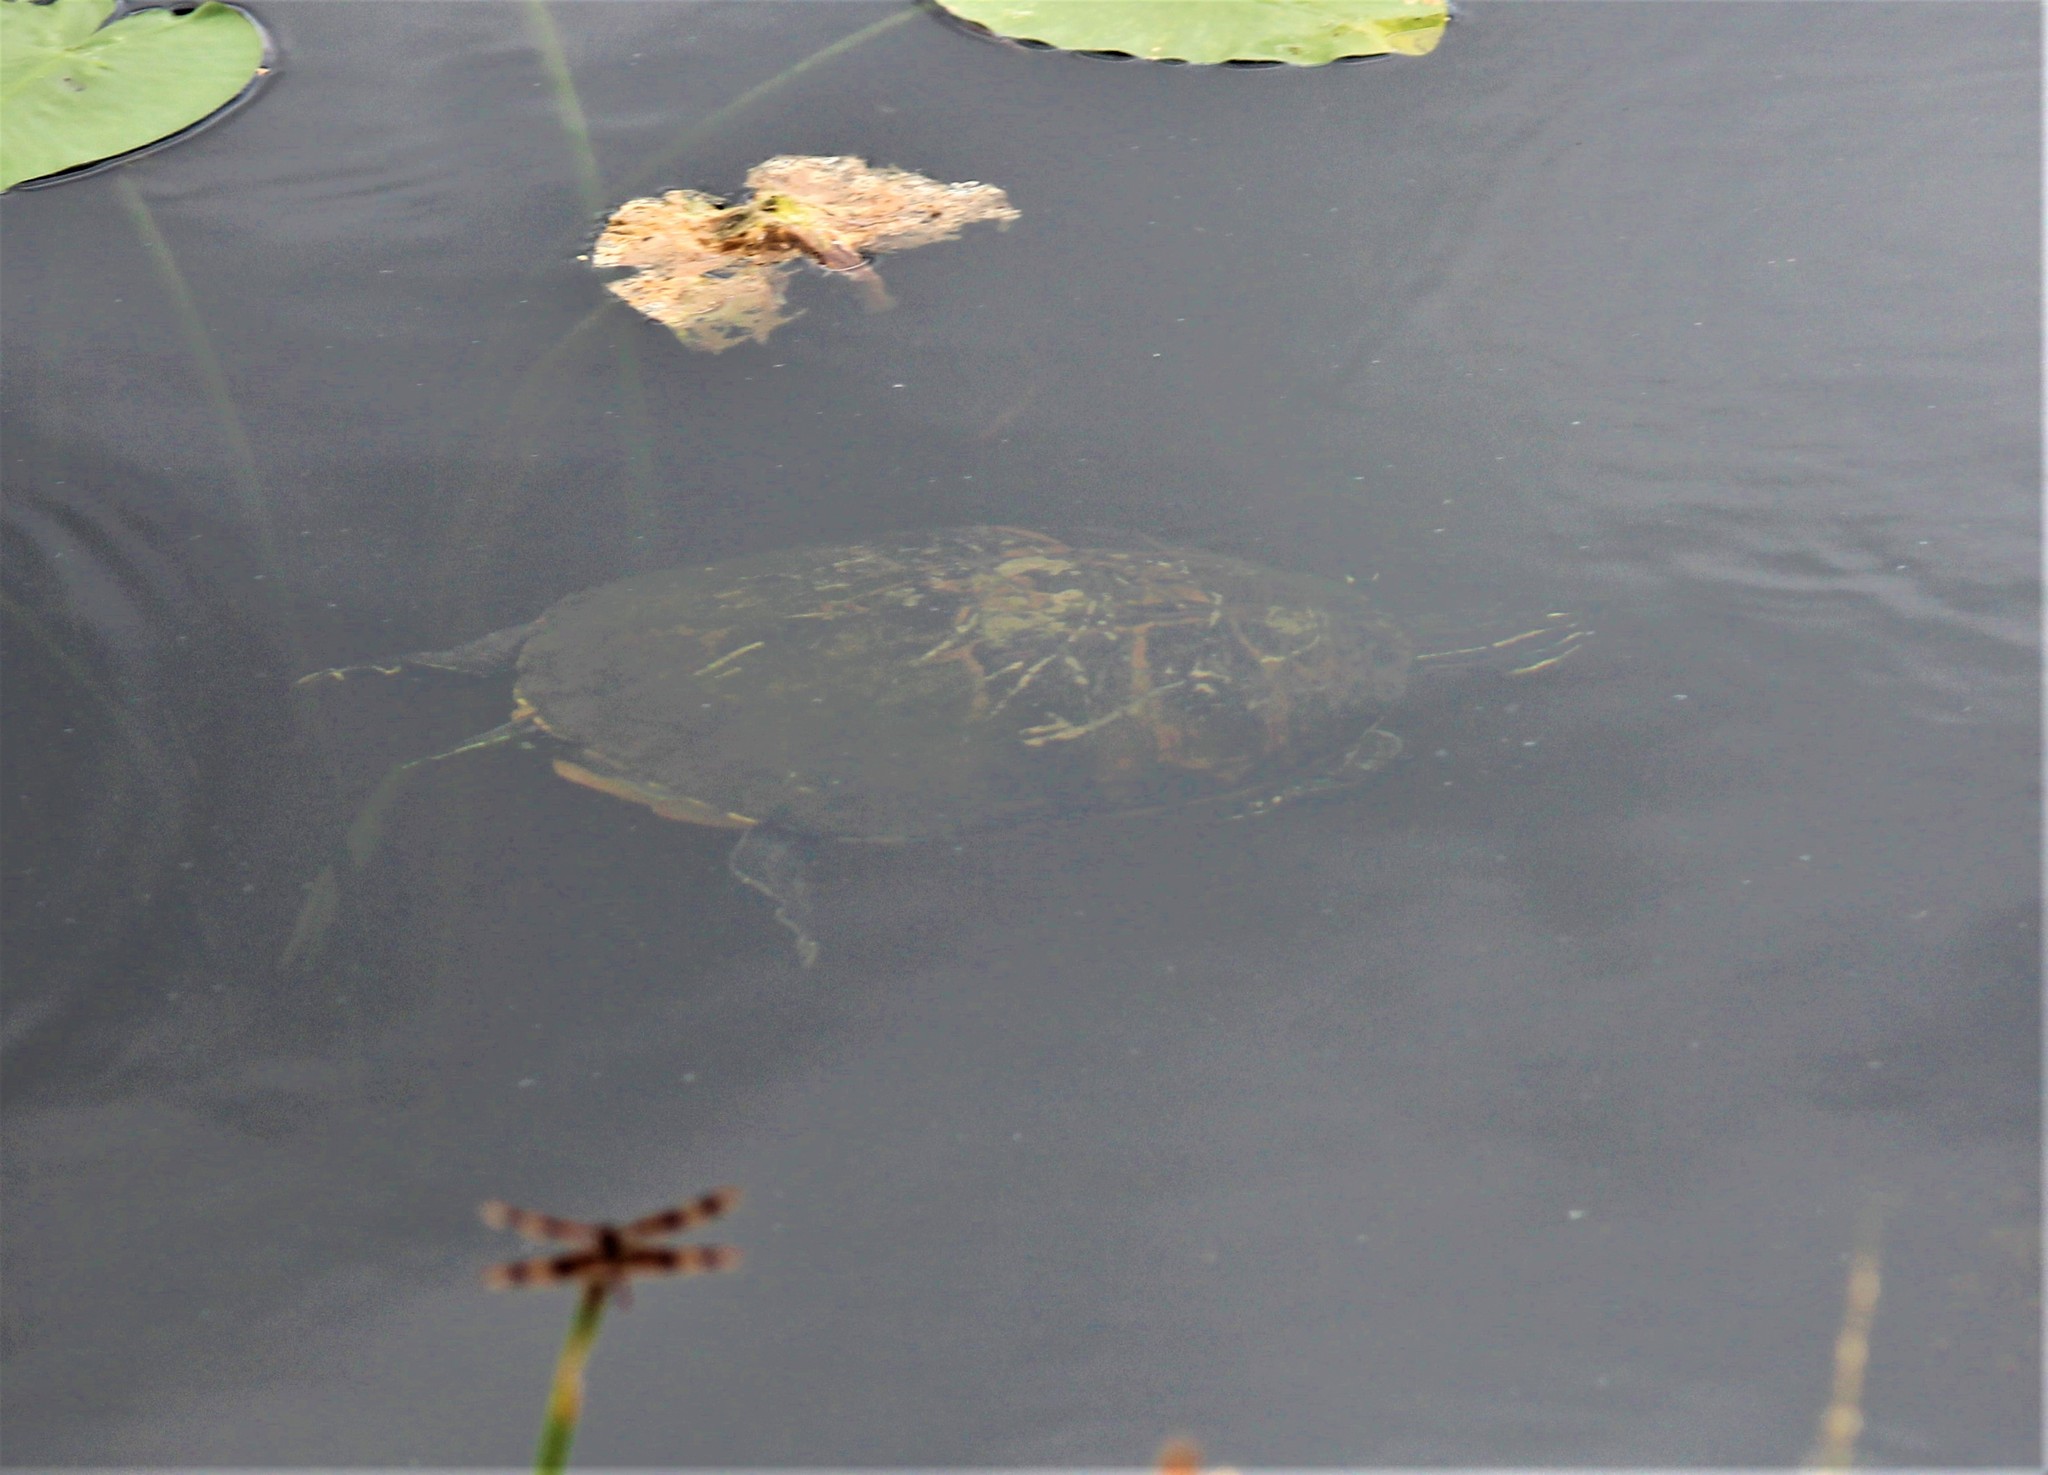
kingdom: Animalia
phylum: Chordata
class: Testudines
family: Emydidae
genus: Pseudemys
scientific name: Pseudemys nelsoni
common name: Florida red-bellied turtle
